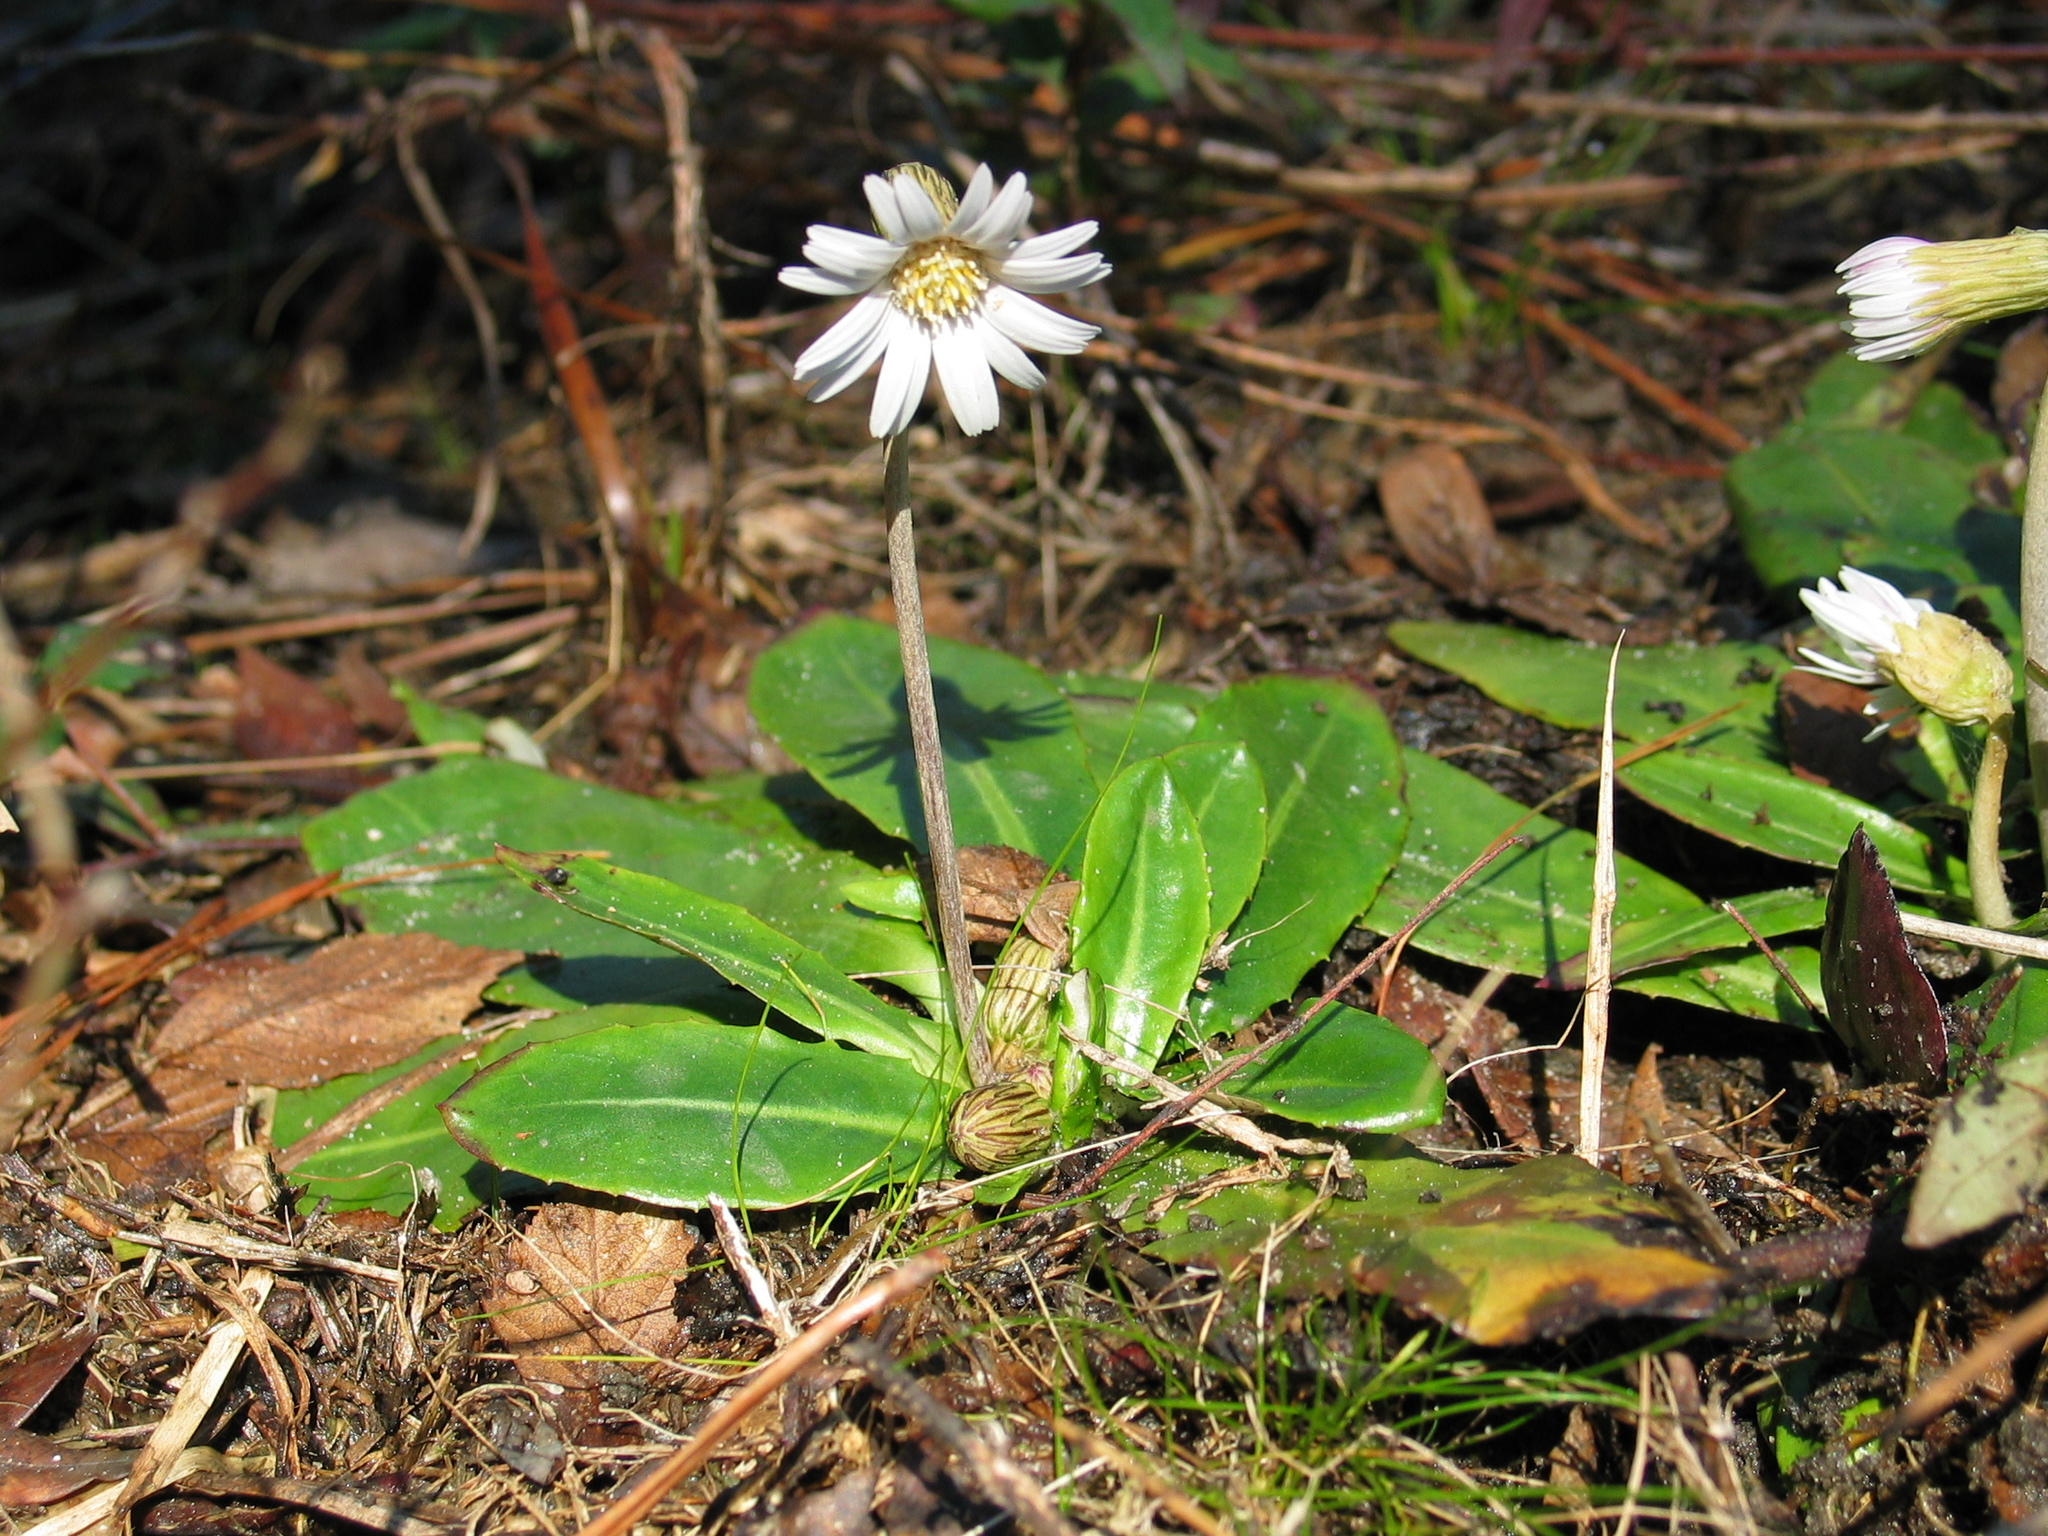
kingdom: Plantae
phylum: Tracheophyta
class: Magnoliopsida
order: Asterales
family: Asteraceae
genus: Chaptalia
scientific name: Chaptalia tomentosa
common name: Woolly sunbonnet
